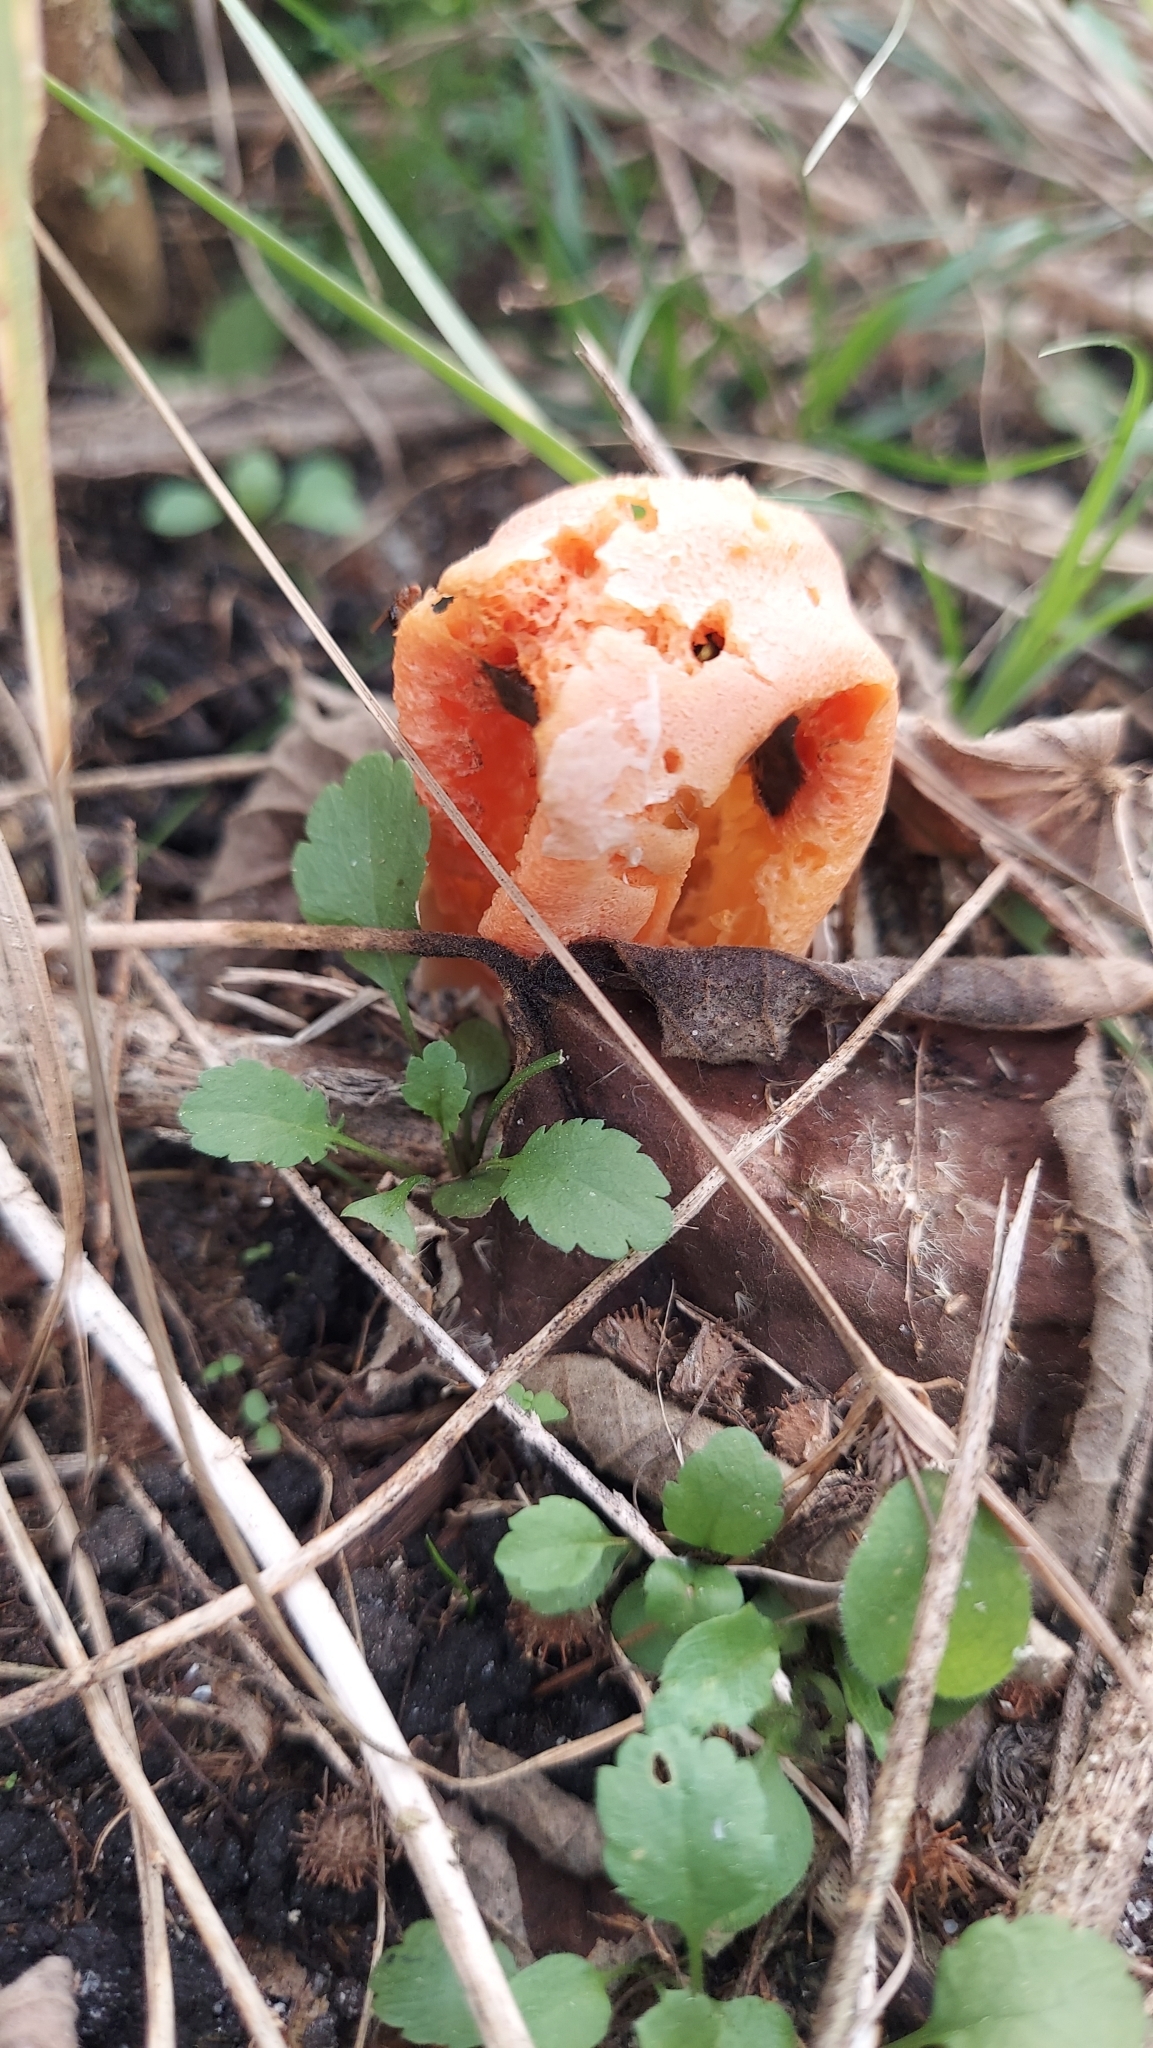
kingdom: Fungi
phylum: Basidiomycota
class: Agaricomycetes
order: Phallales
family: Phallaceae
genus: Clathrus
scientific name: Clathrus columnatus
